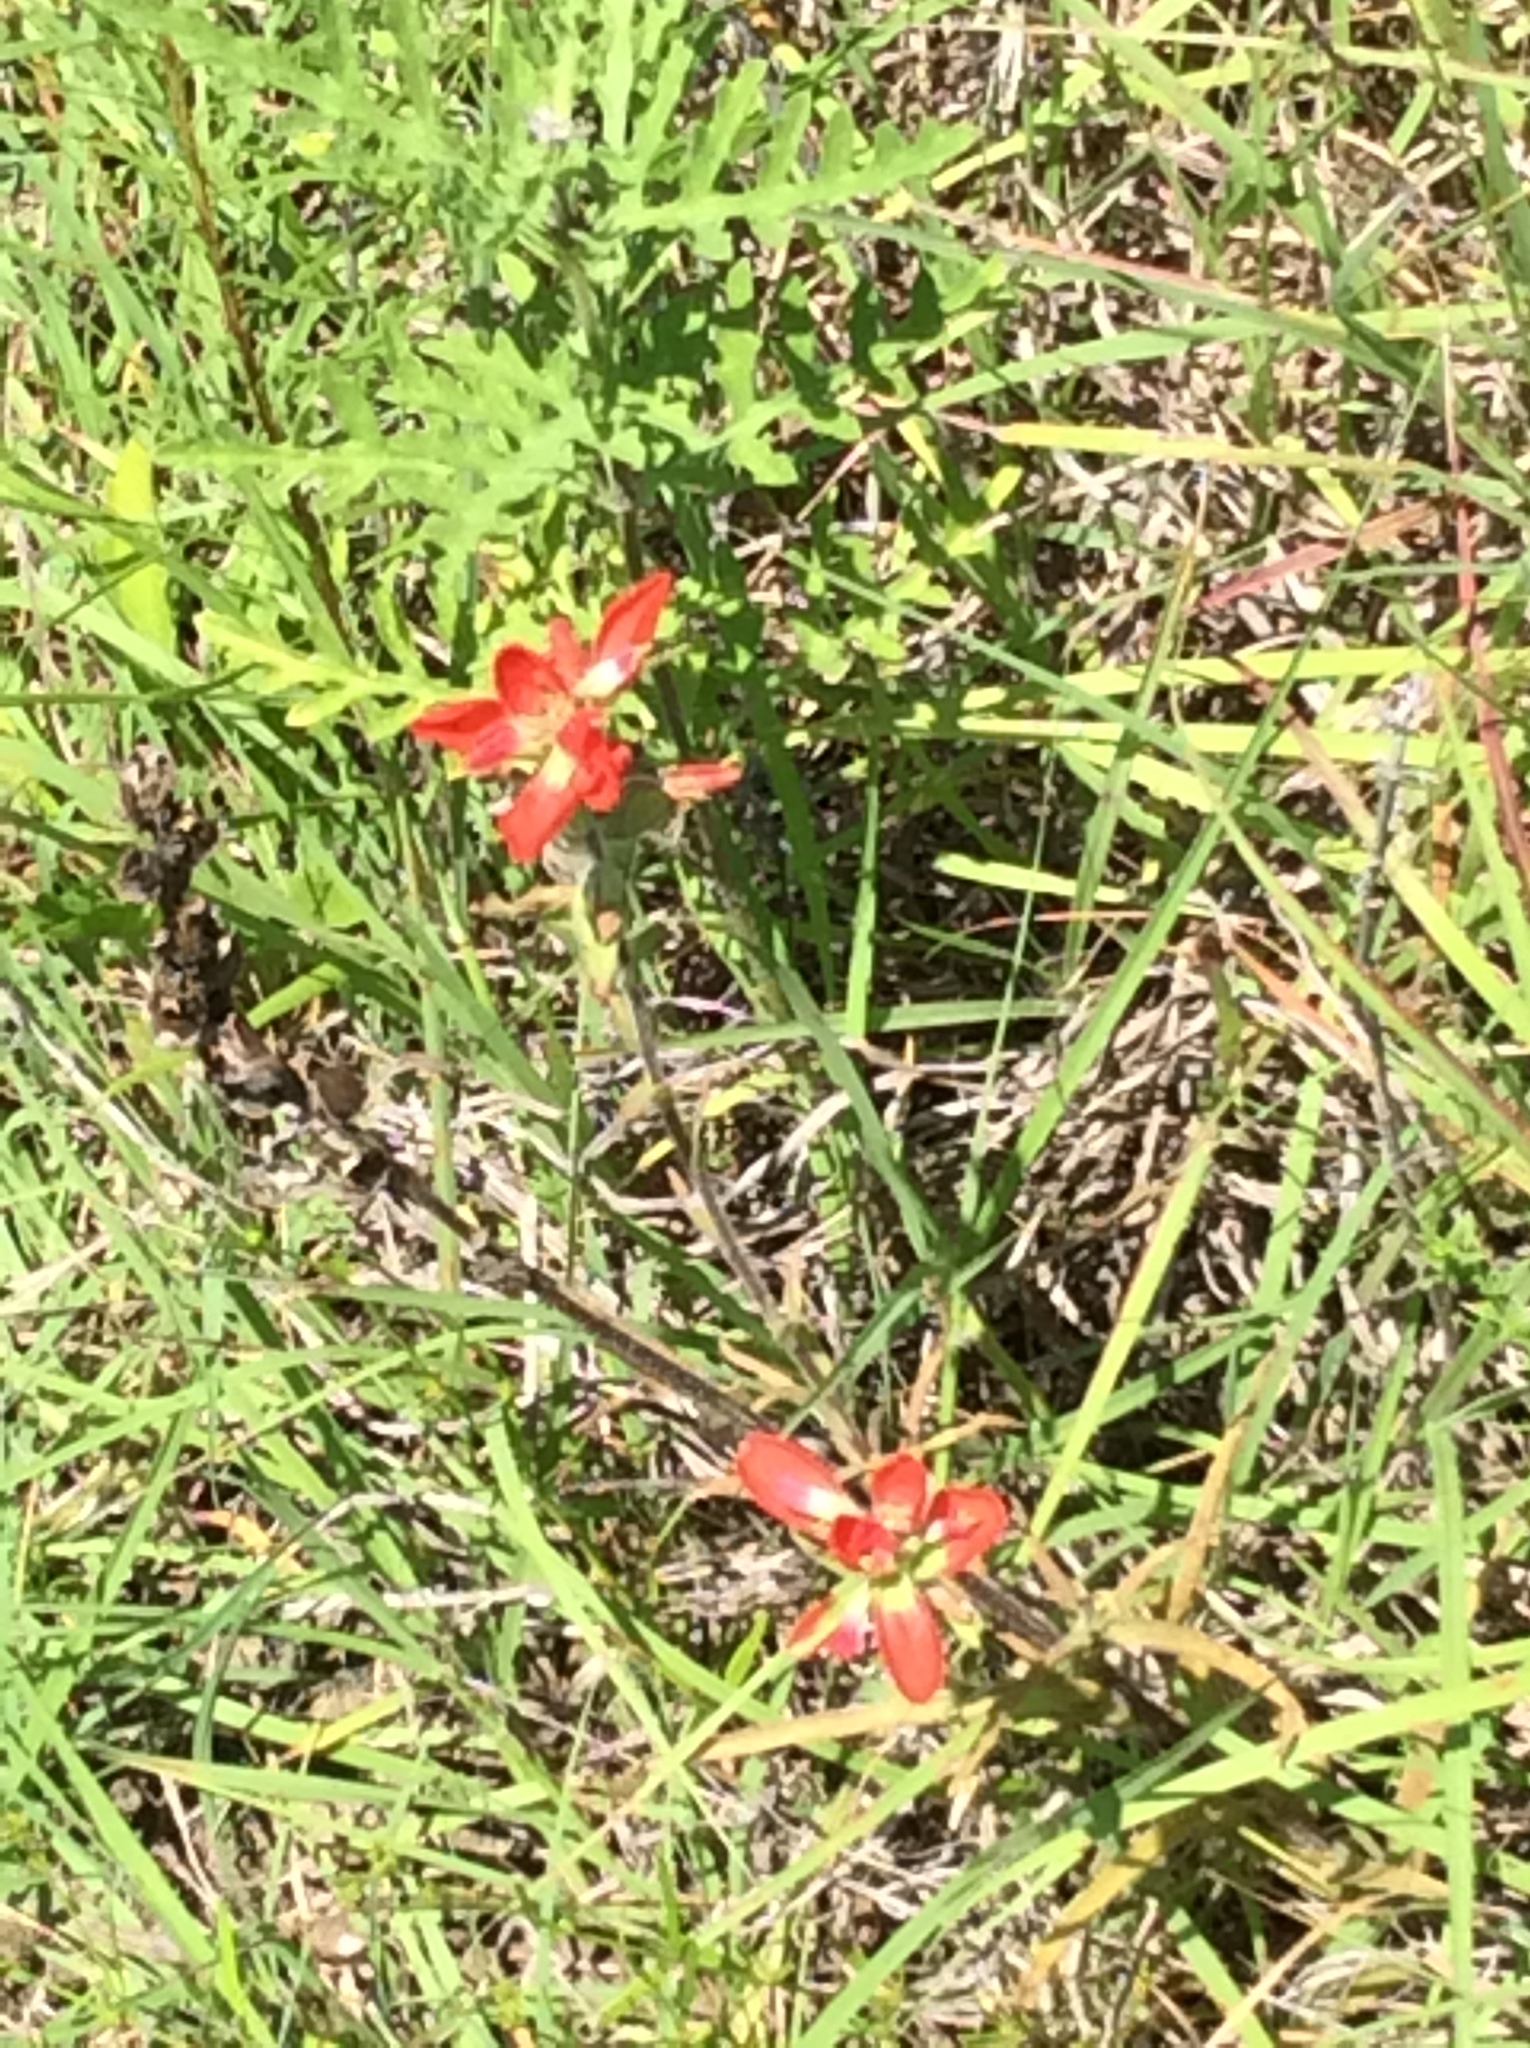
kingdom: Plantae
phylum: Tracheophyta
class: Magnoliopsida
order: Lamiales
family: Orobanchaceae
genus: Castilleja
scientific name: Castilleja indivisa
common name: Texas paintbrush
